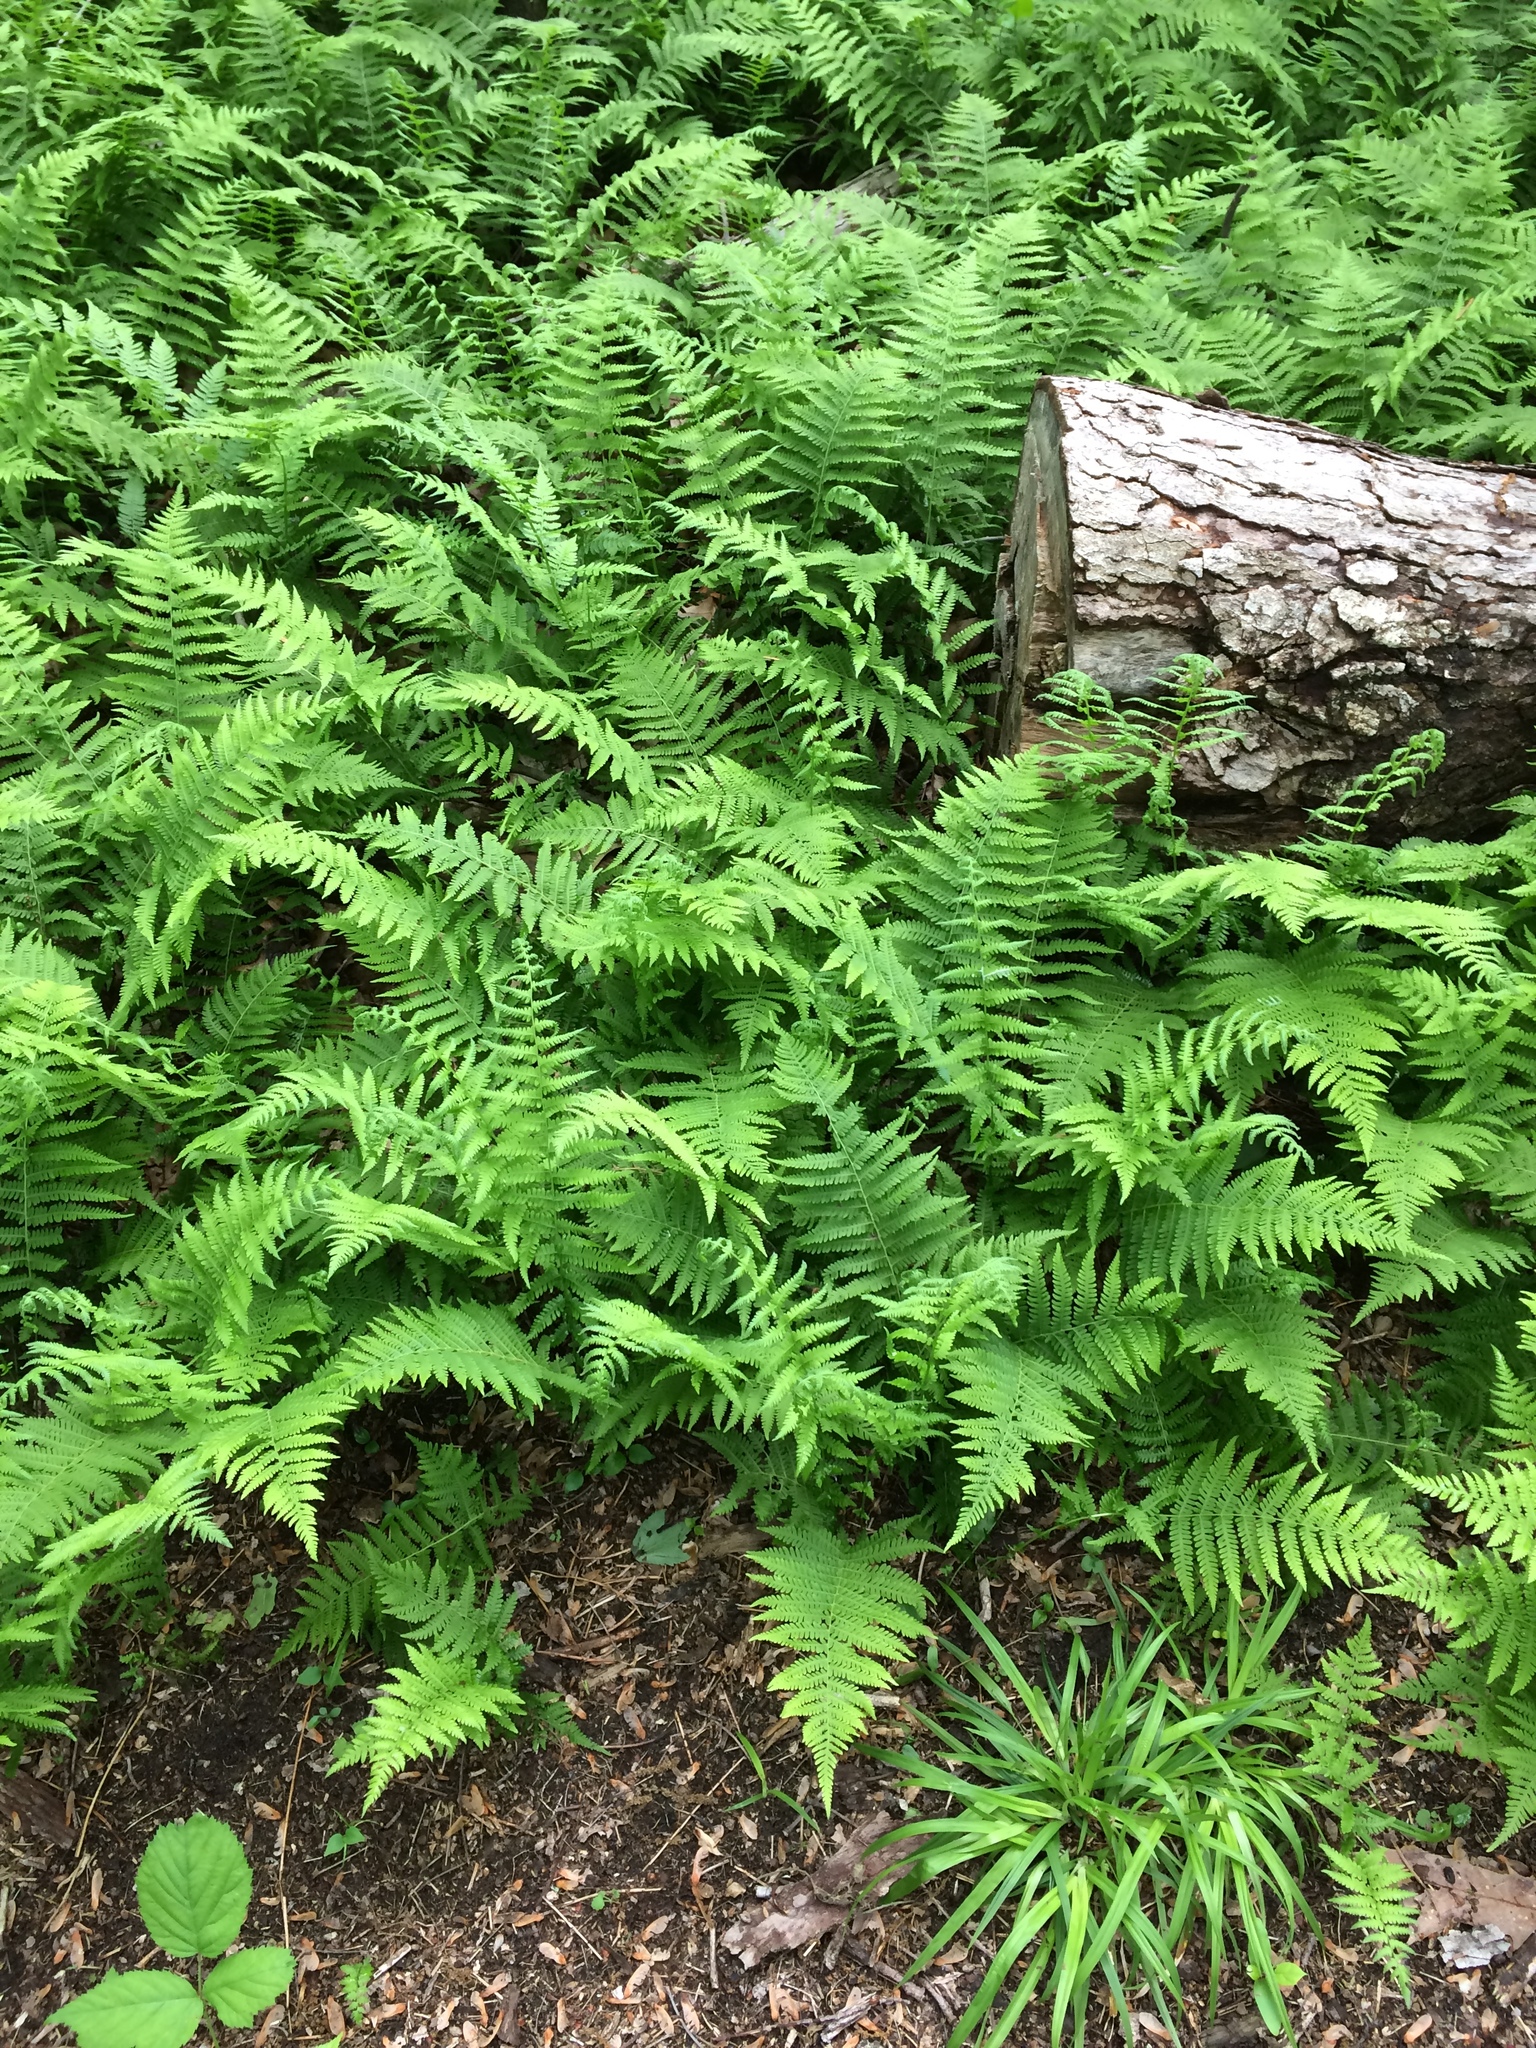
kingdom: Plantae
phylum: Tracheophyta
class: Polypodiopsida
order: Polypodiales
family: Thelypteridaceae
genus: Amauropelta
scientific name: Amauropelta noveboracensis
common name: New york fern
